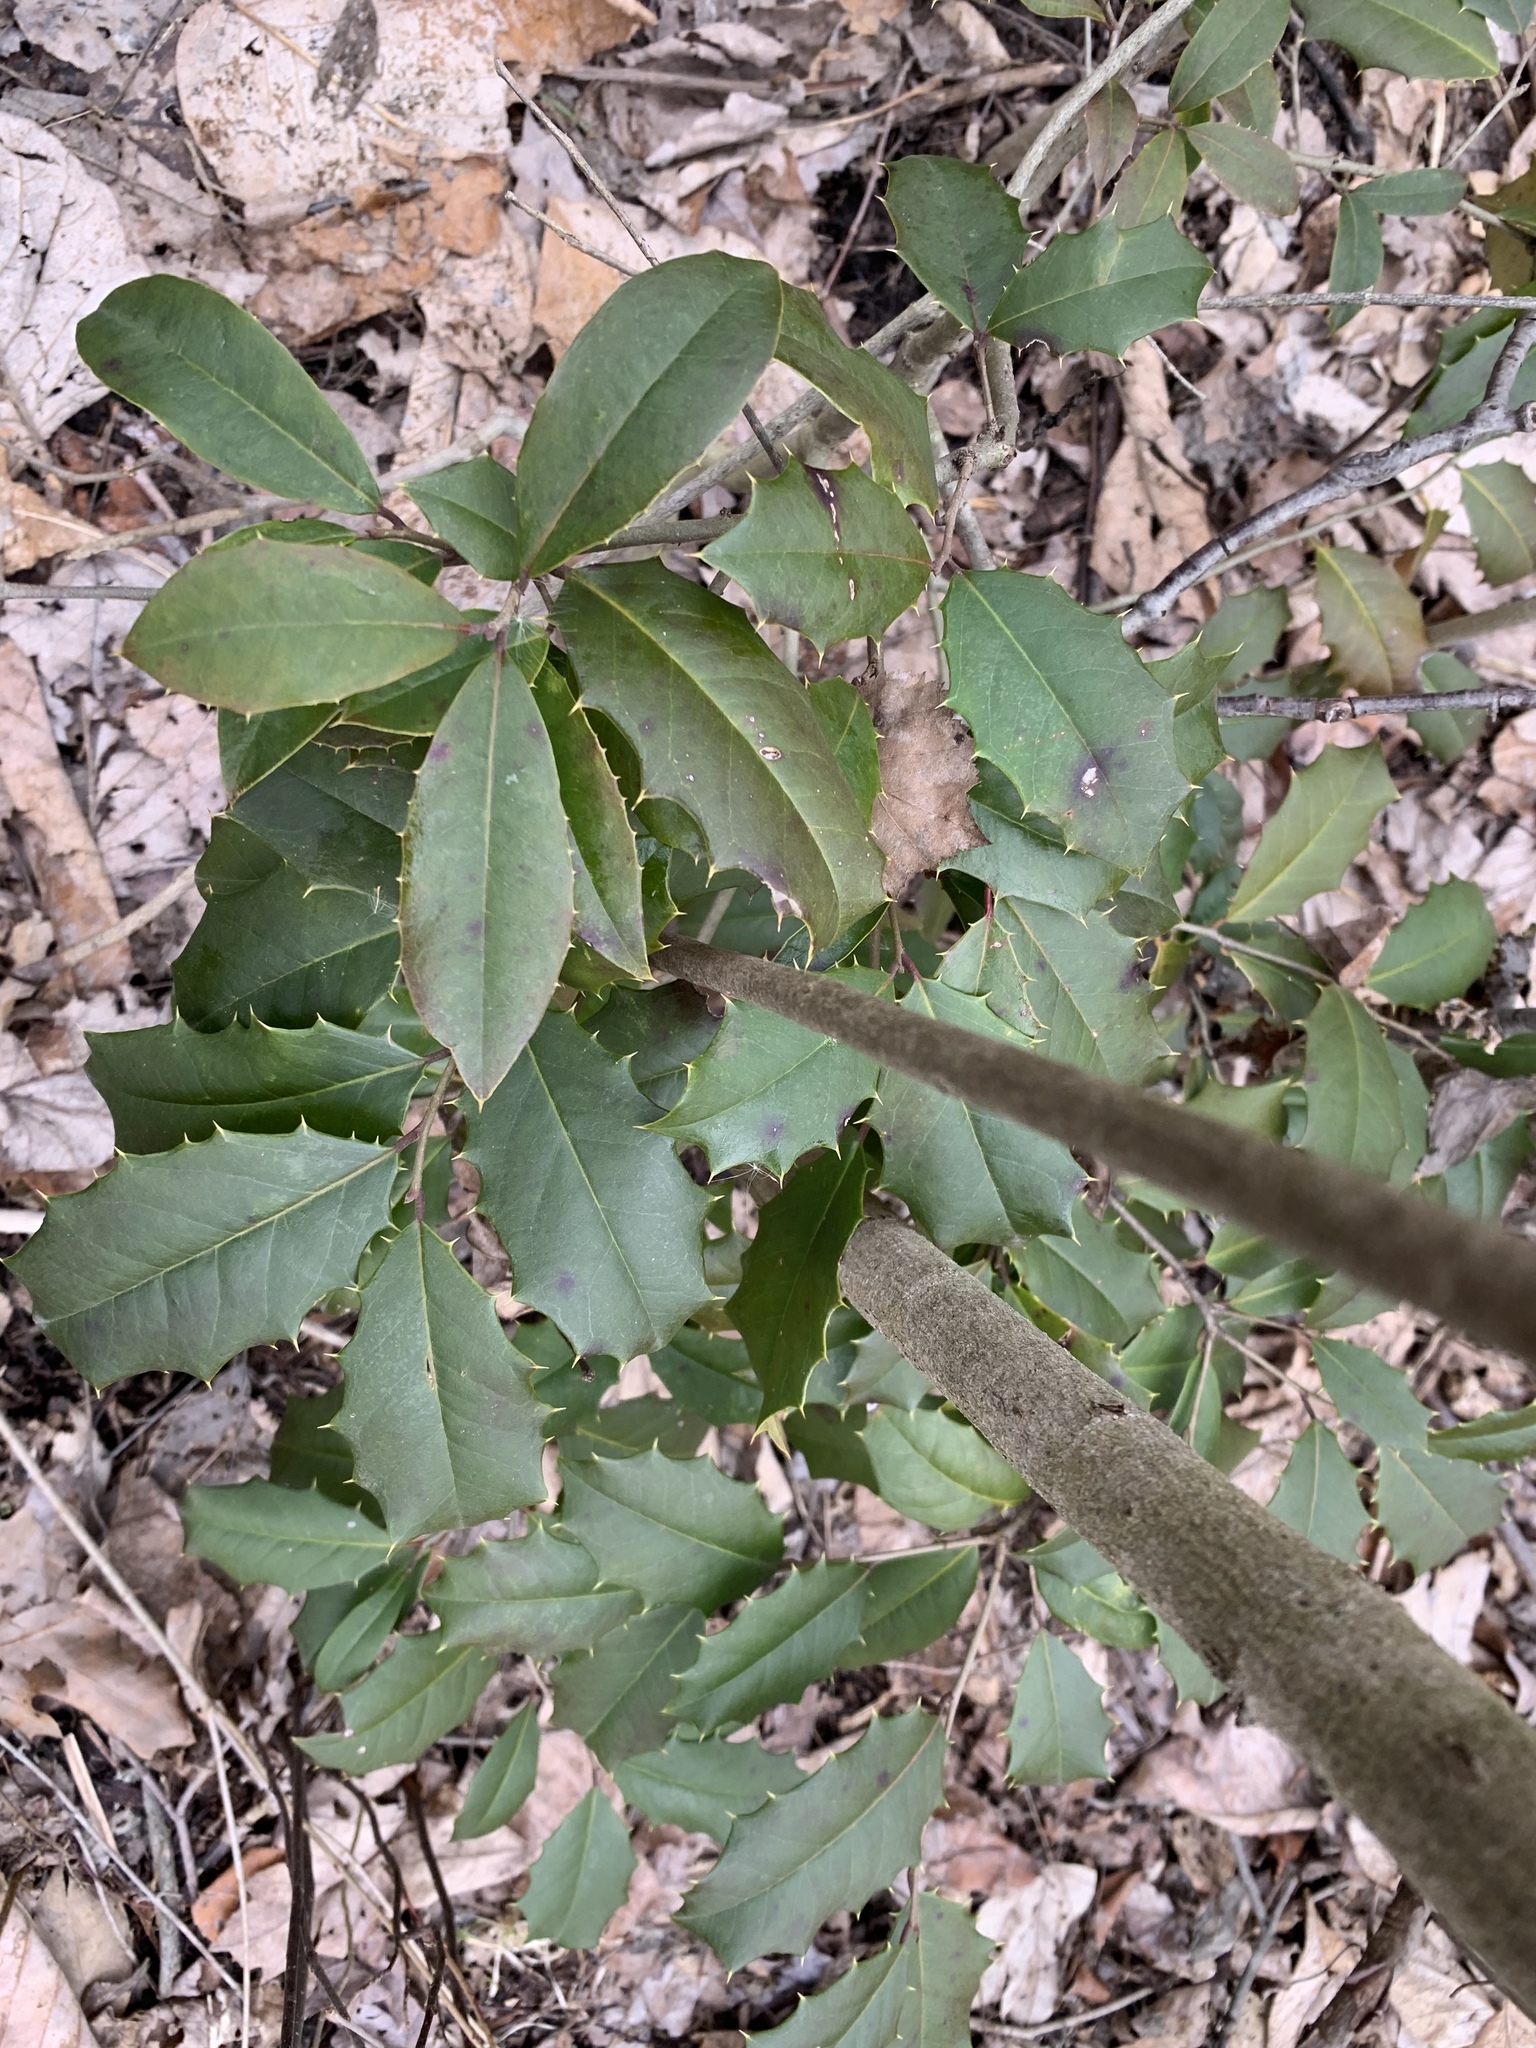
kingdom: Plantae
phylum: Tracheophyta
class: Magnoliopsida
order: Aquifoliales
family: Aquifoliaceae
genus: Ilex
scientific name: Ilex opaca
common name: American holly
